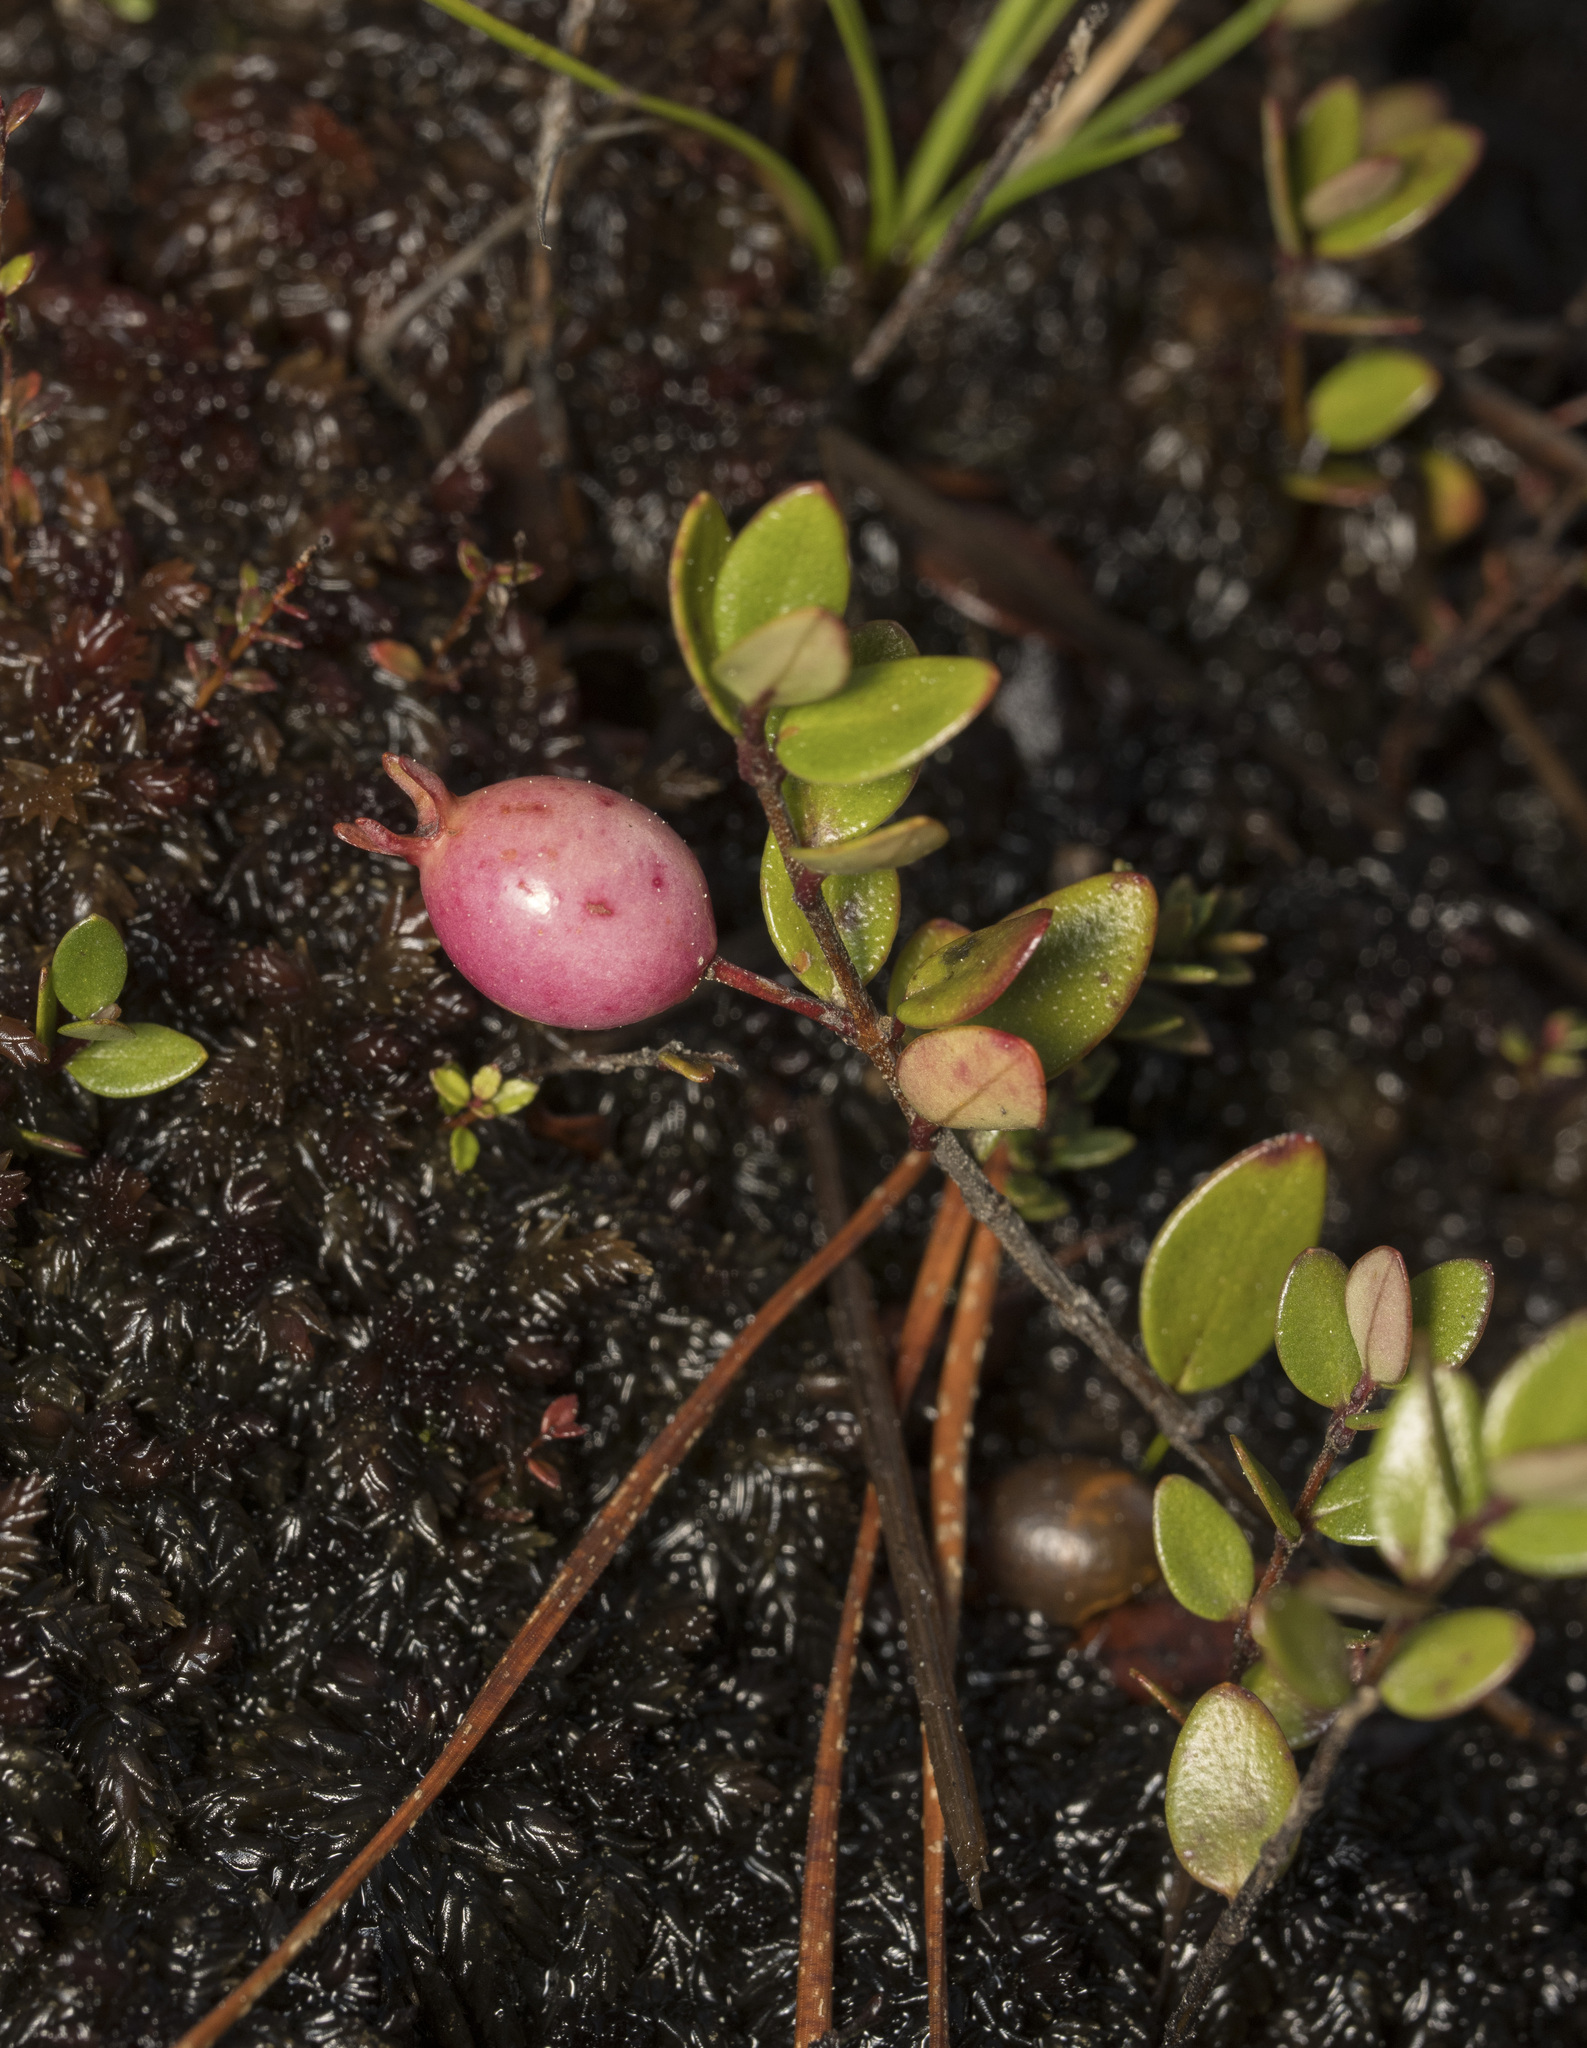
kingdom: Plantae
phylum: Tracheophyta
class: Magnoliopsida
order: Myrtales
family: Myrtaceae
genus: Myrteola
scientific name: Myrteola nummularia
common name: Cranberry-myrtle
